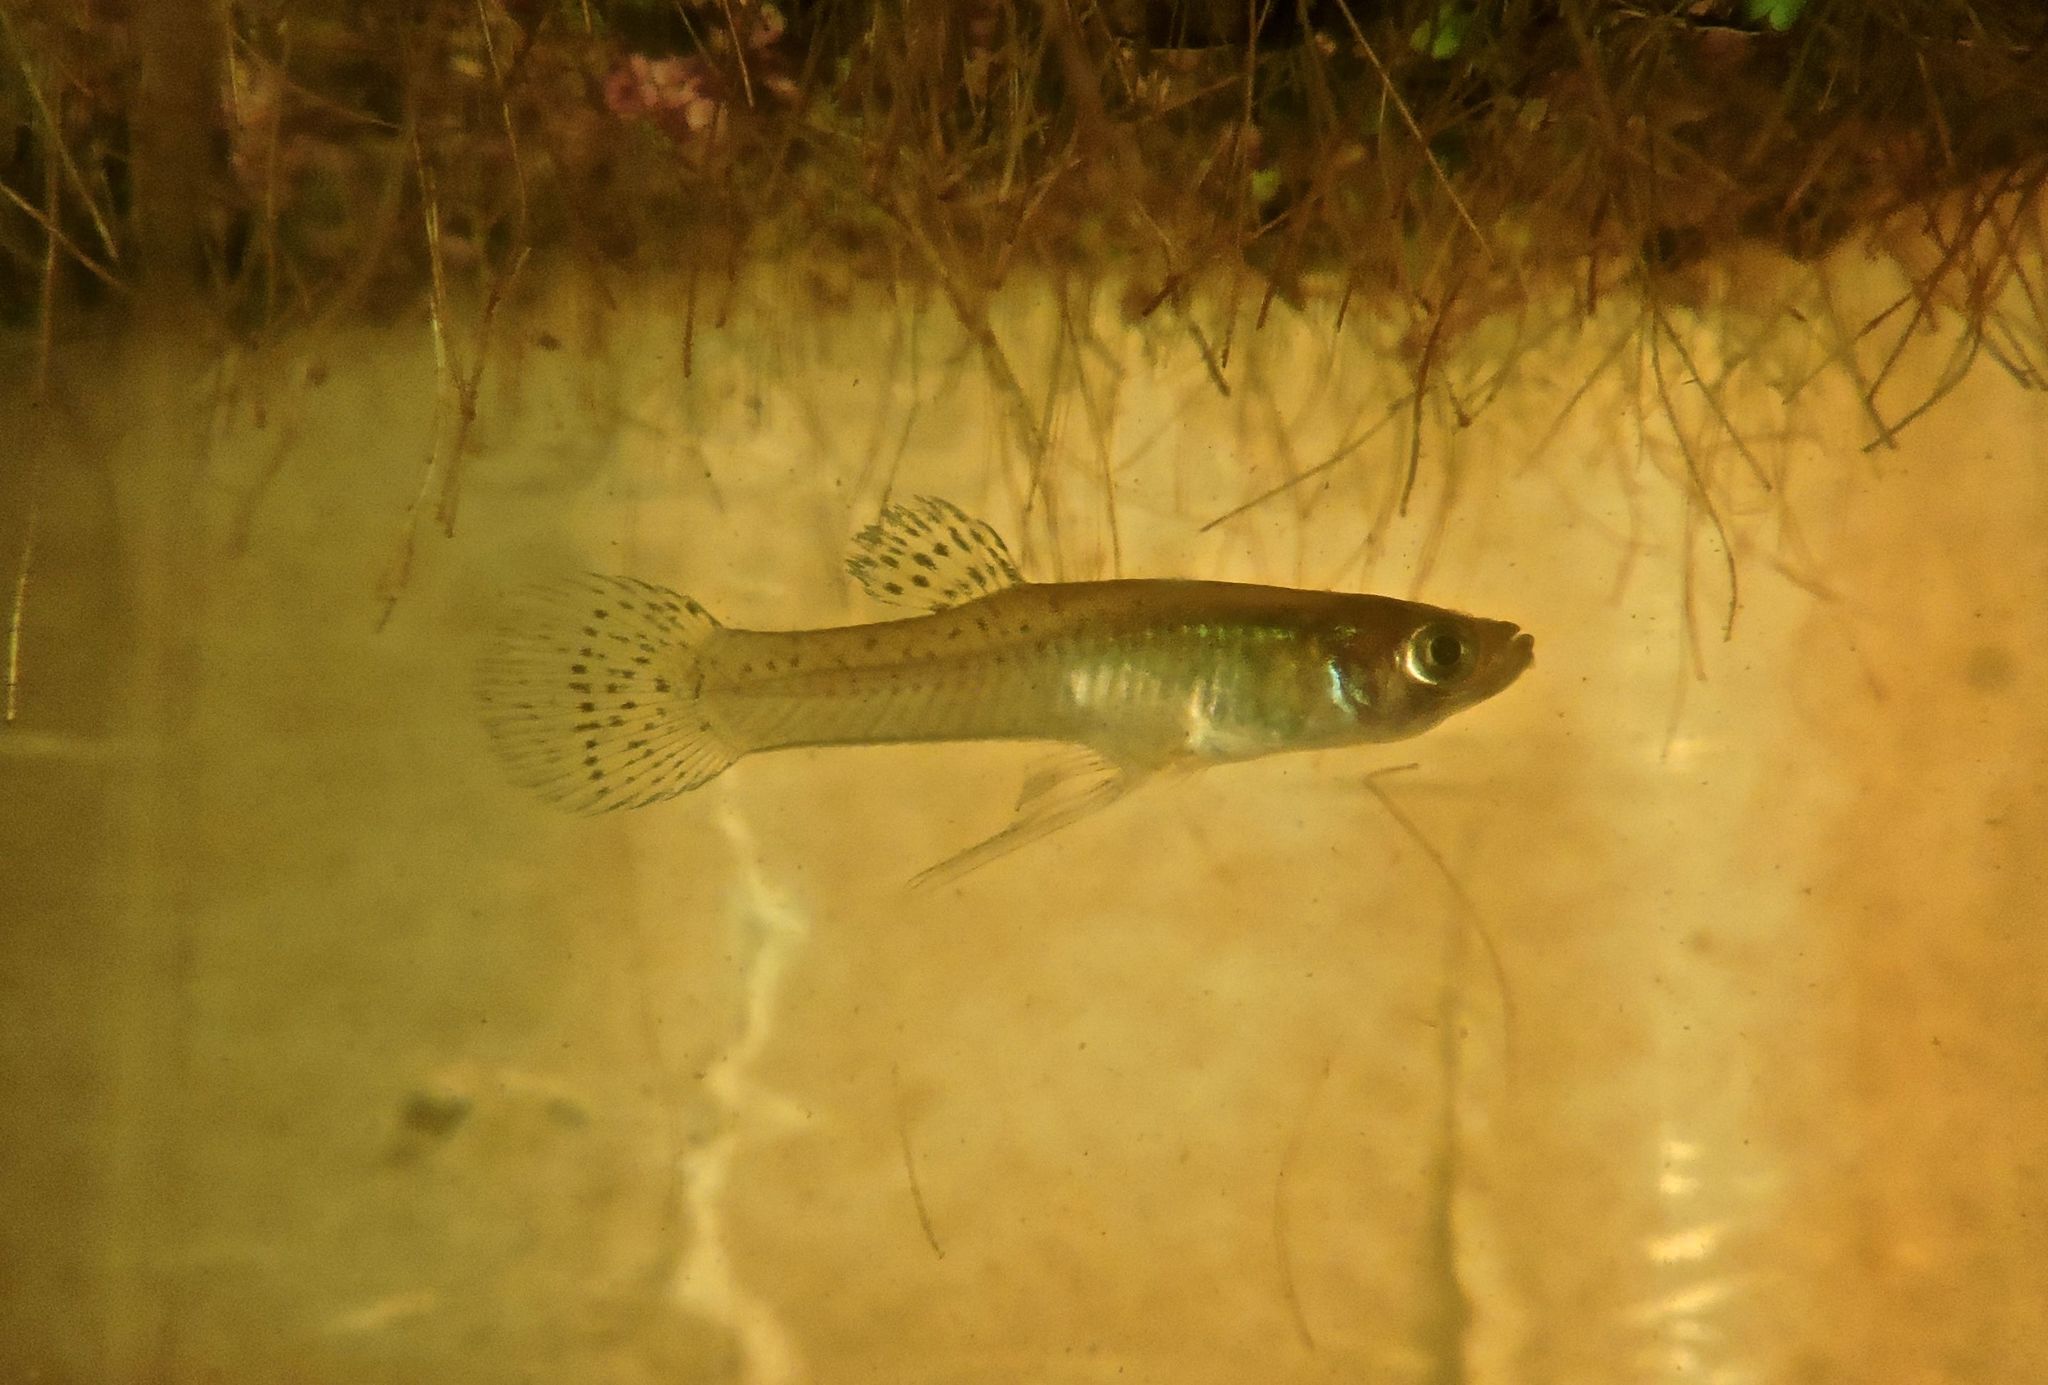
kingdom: Animalia
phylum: Chordata
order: Cyprinodontiformes
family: Poeciliidae
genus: Gambusia
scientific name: Gambusia holbrooki
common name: Eastern mosquitofish
